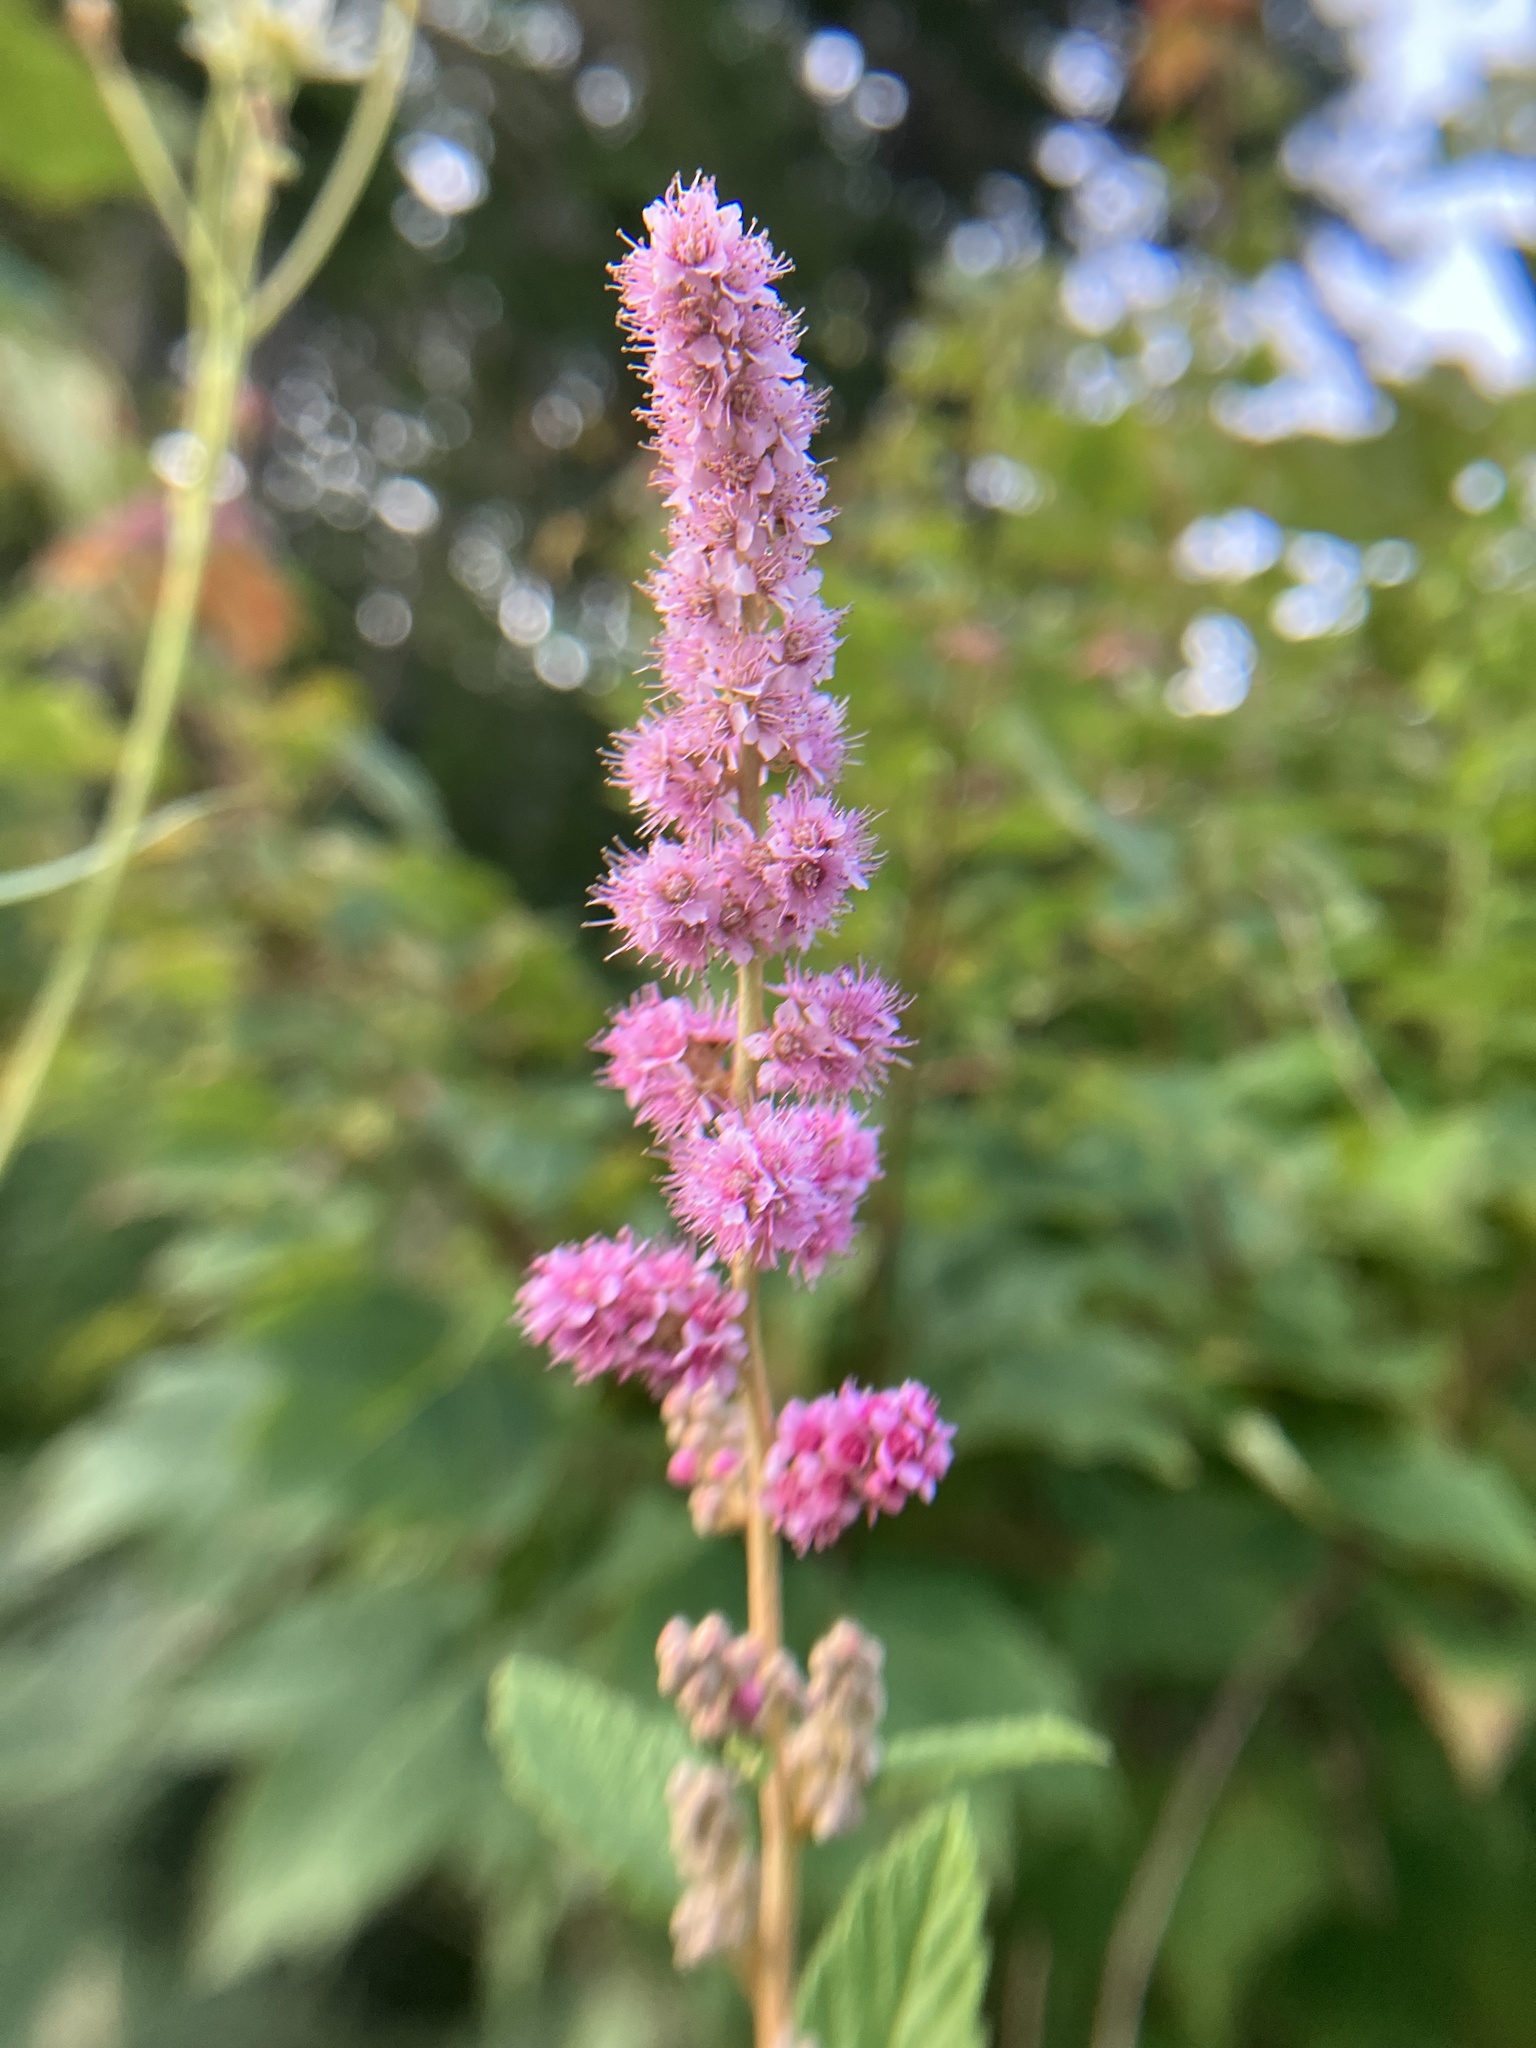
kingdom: Plantae
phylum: Tracheophyta
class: Magnoliopsida
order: Rosales
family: Rosaceae
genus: Spiraea
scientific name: Spiraea tomentosa
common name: Hardhack
